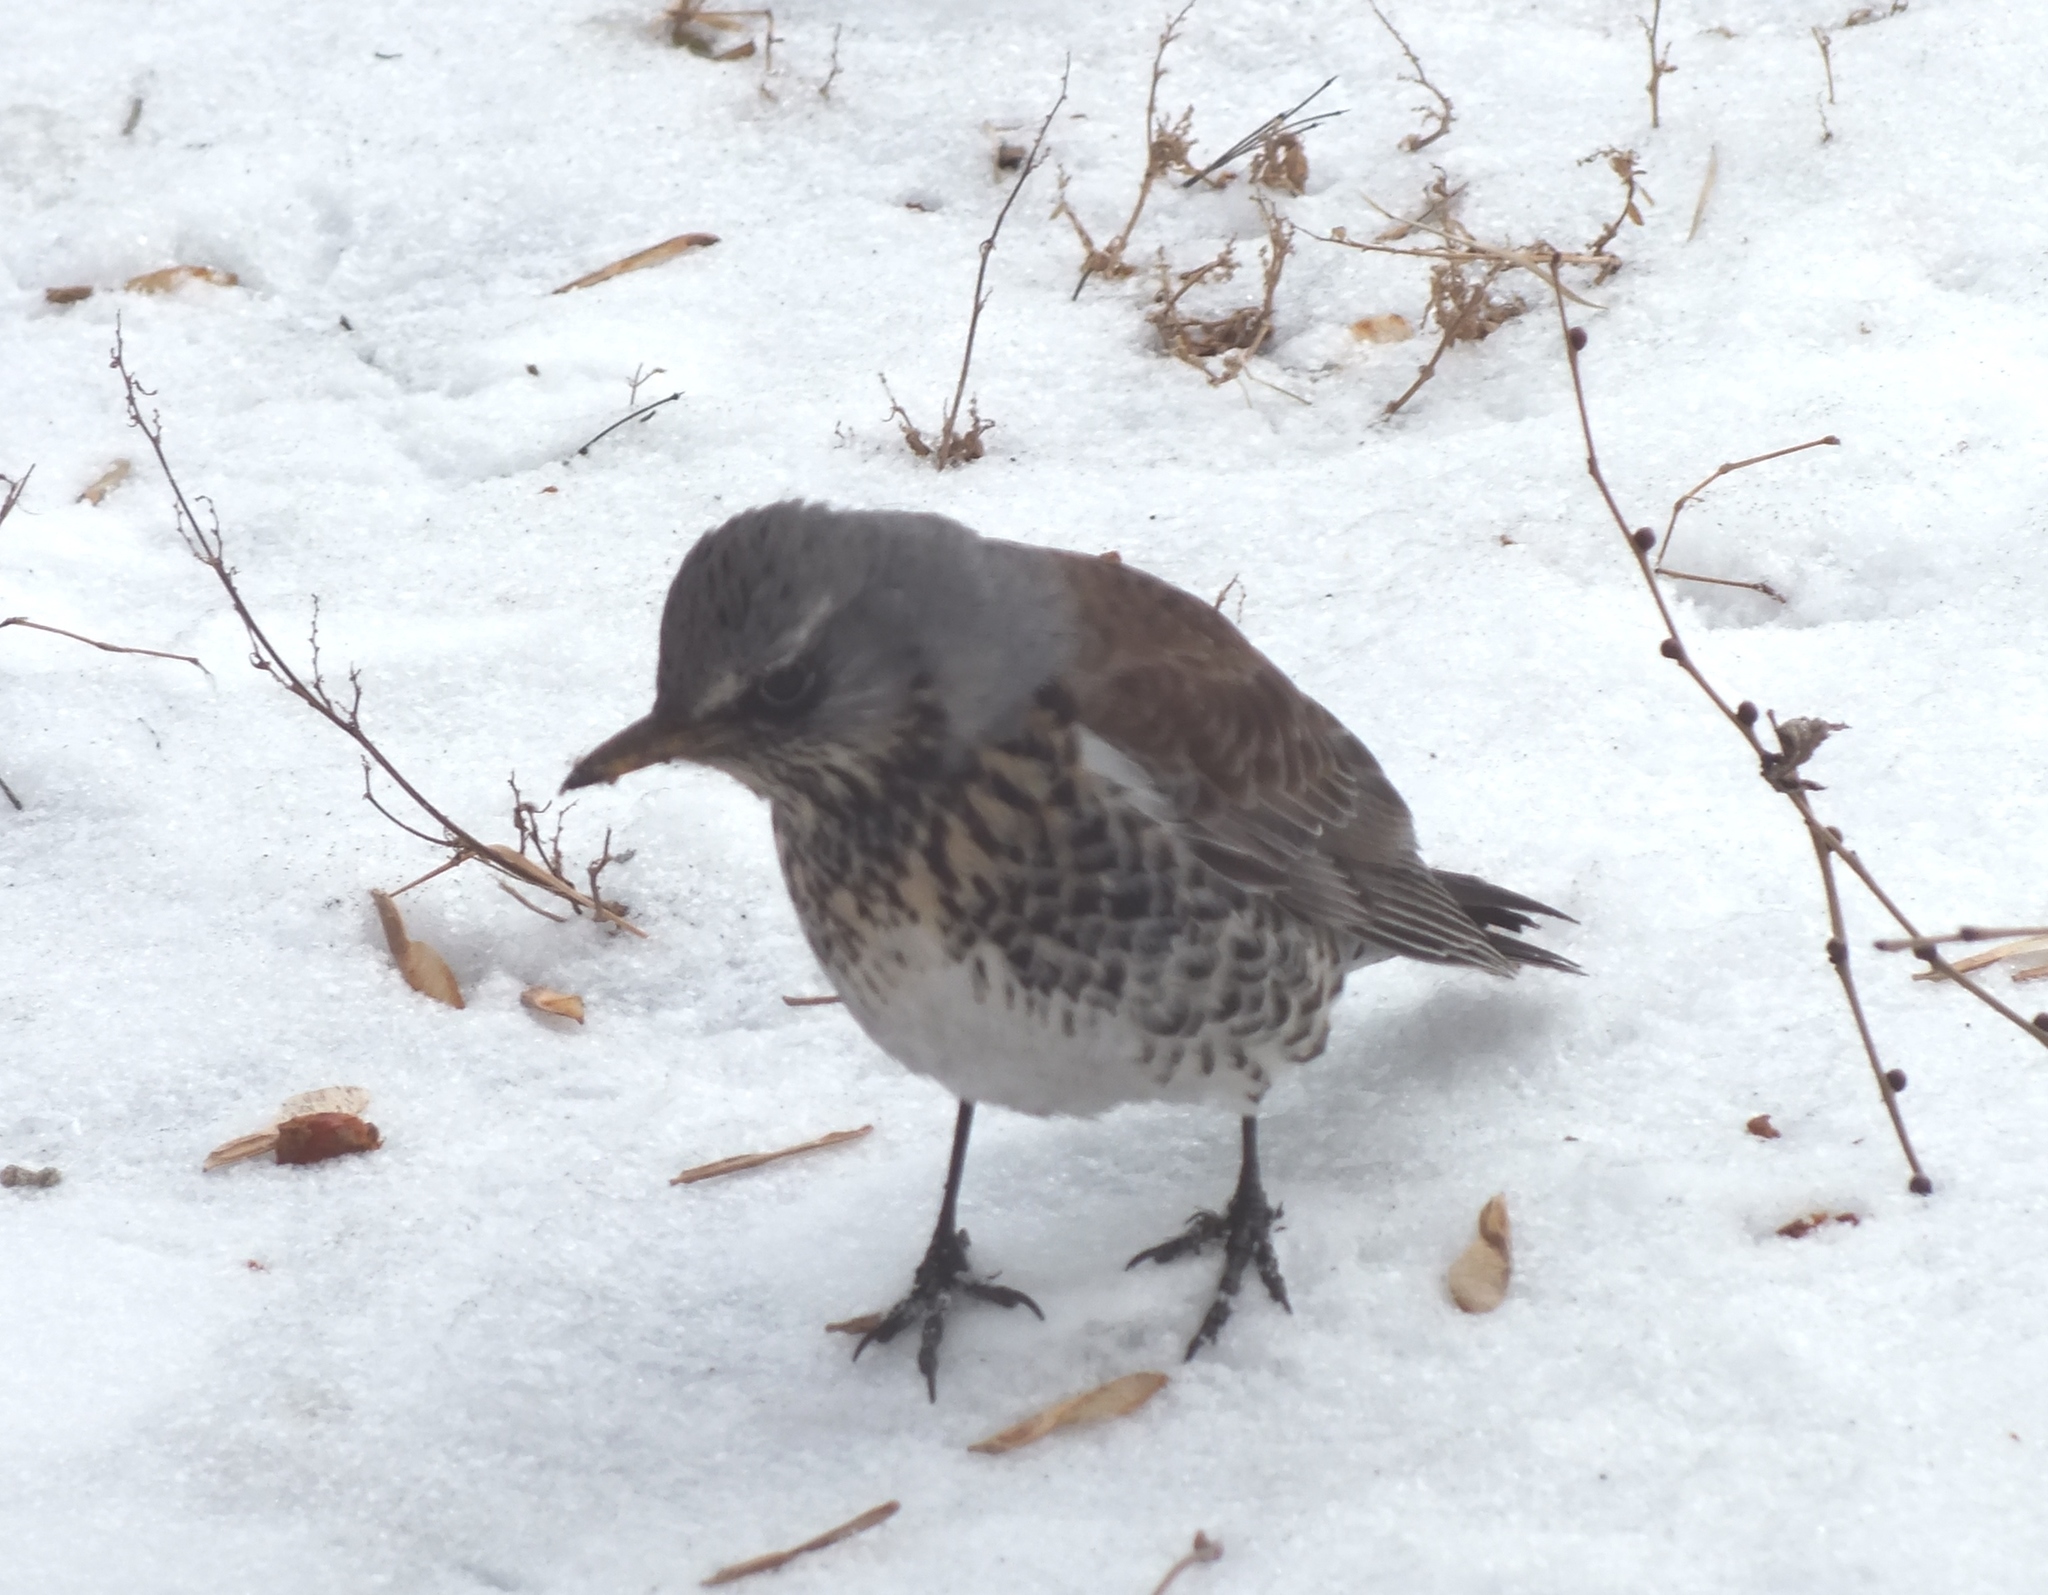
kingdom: Animalia
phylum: Chordata
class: Aves
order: Passeriformes
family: Turdidae
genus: Turdus
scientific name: Turdus pilaris
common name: Fieldfare
